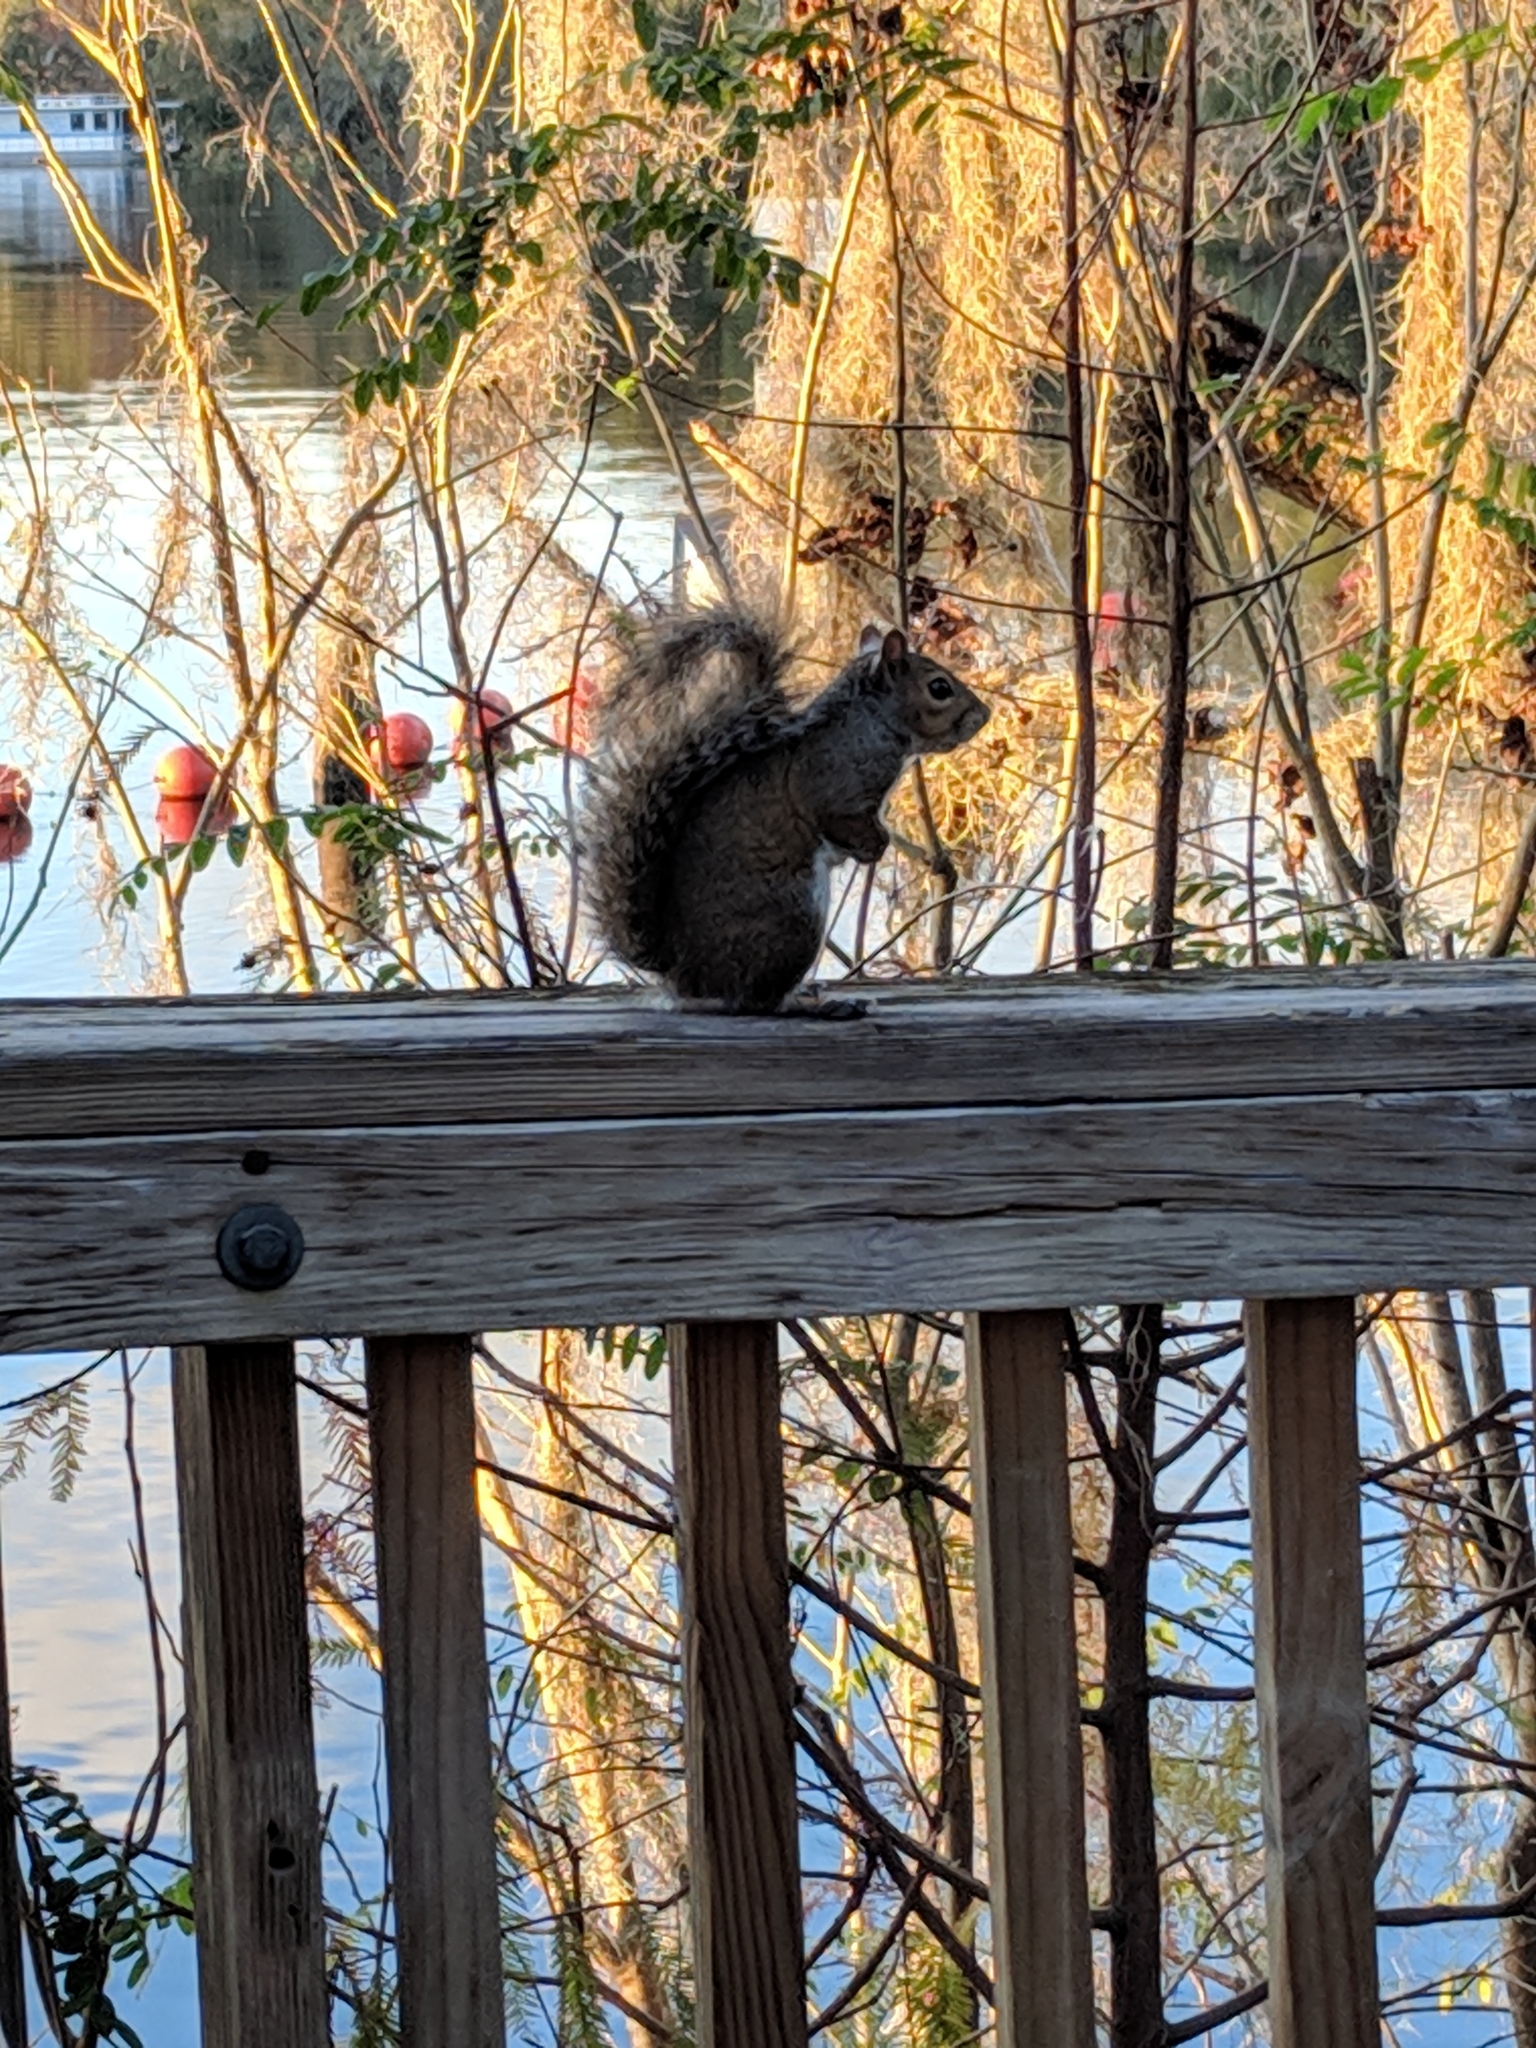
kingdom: Animalia
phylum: Chordata
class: Mammalia
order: Rodentia
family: Sciuridae
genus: Sciurus
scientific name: Sciurus carolinensis
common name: Eastern gray squirrel
